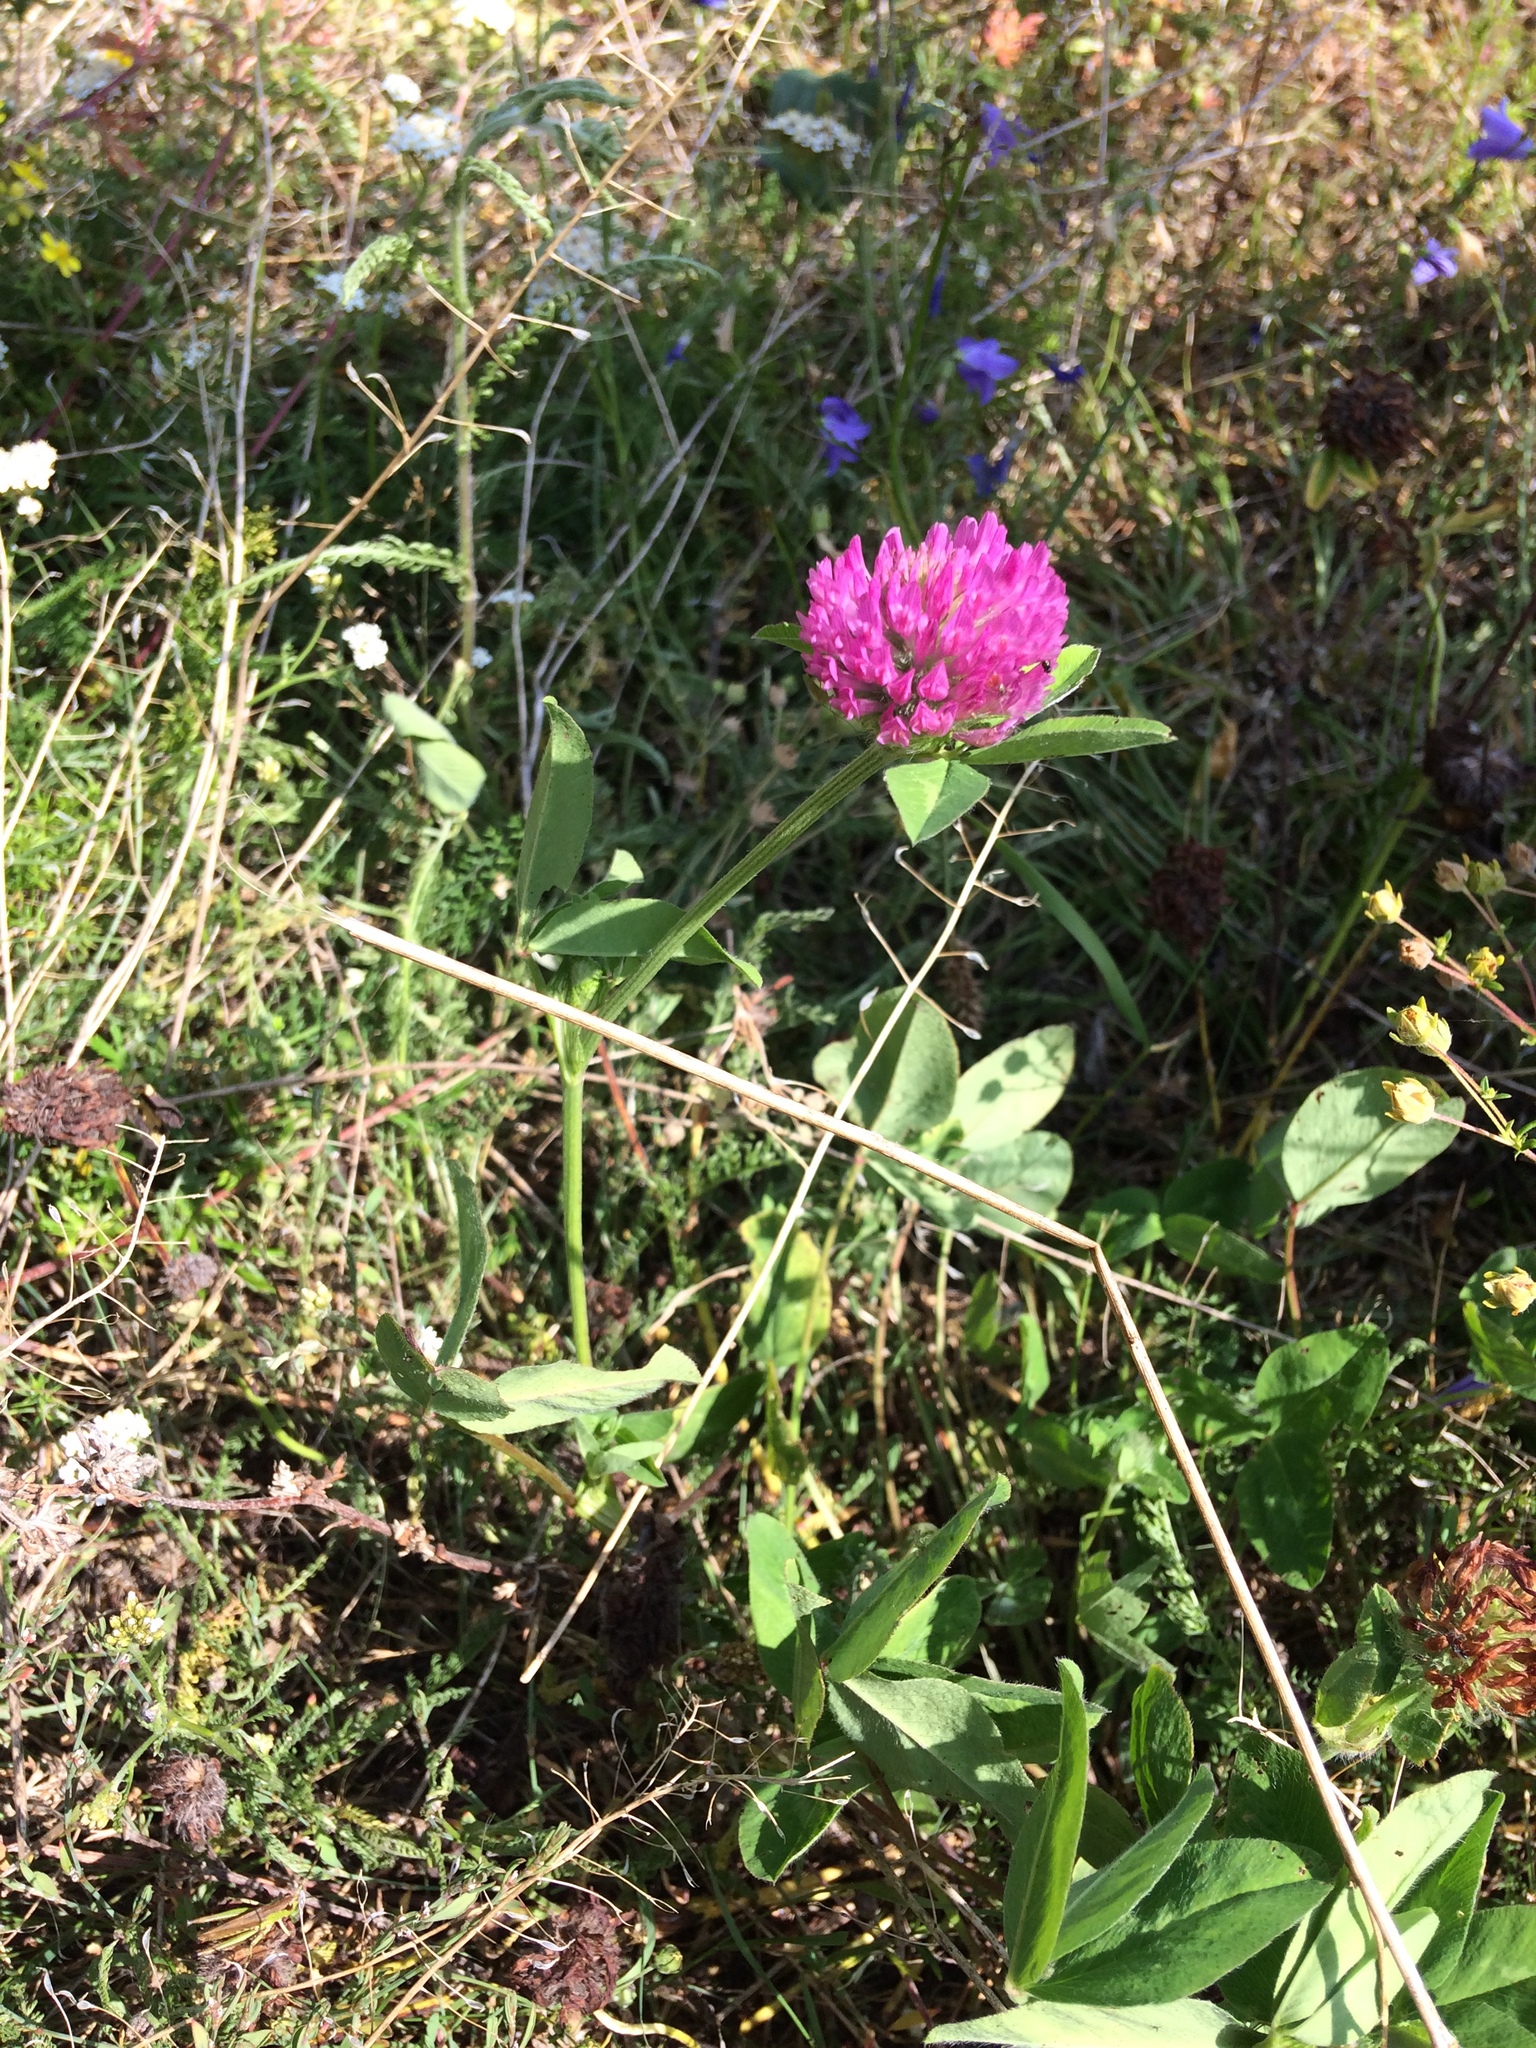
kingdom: Plantae
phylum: Tracheophyta
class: Magnoliopsida
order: Fabales
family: Fabaceae
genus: Trifolium
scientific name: Trifolium pratense
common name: Red clover
